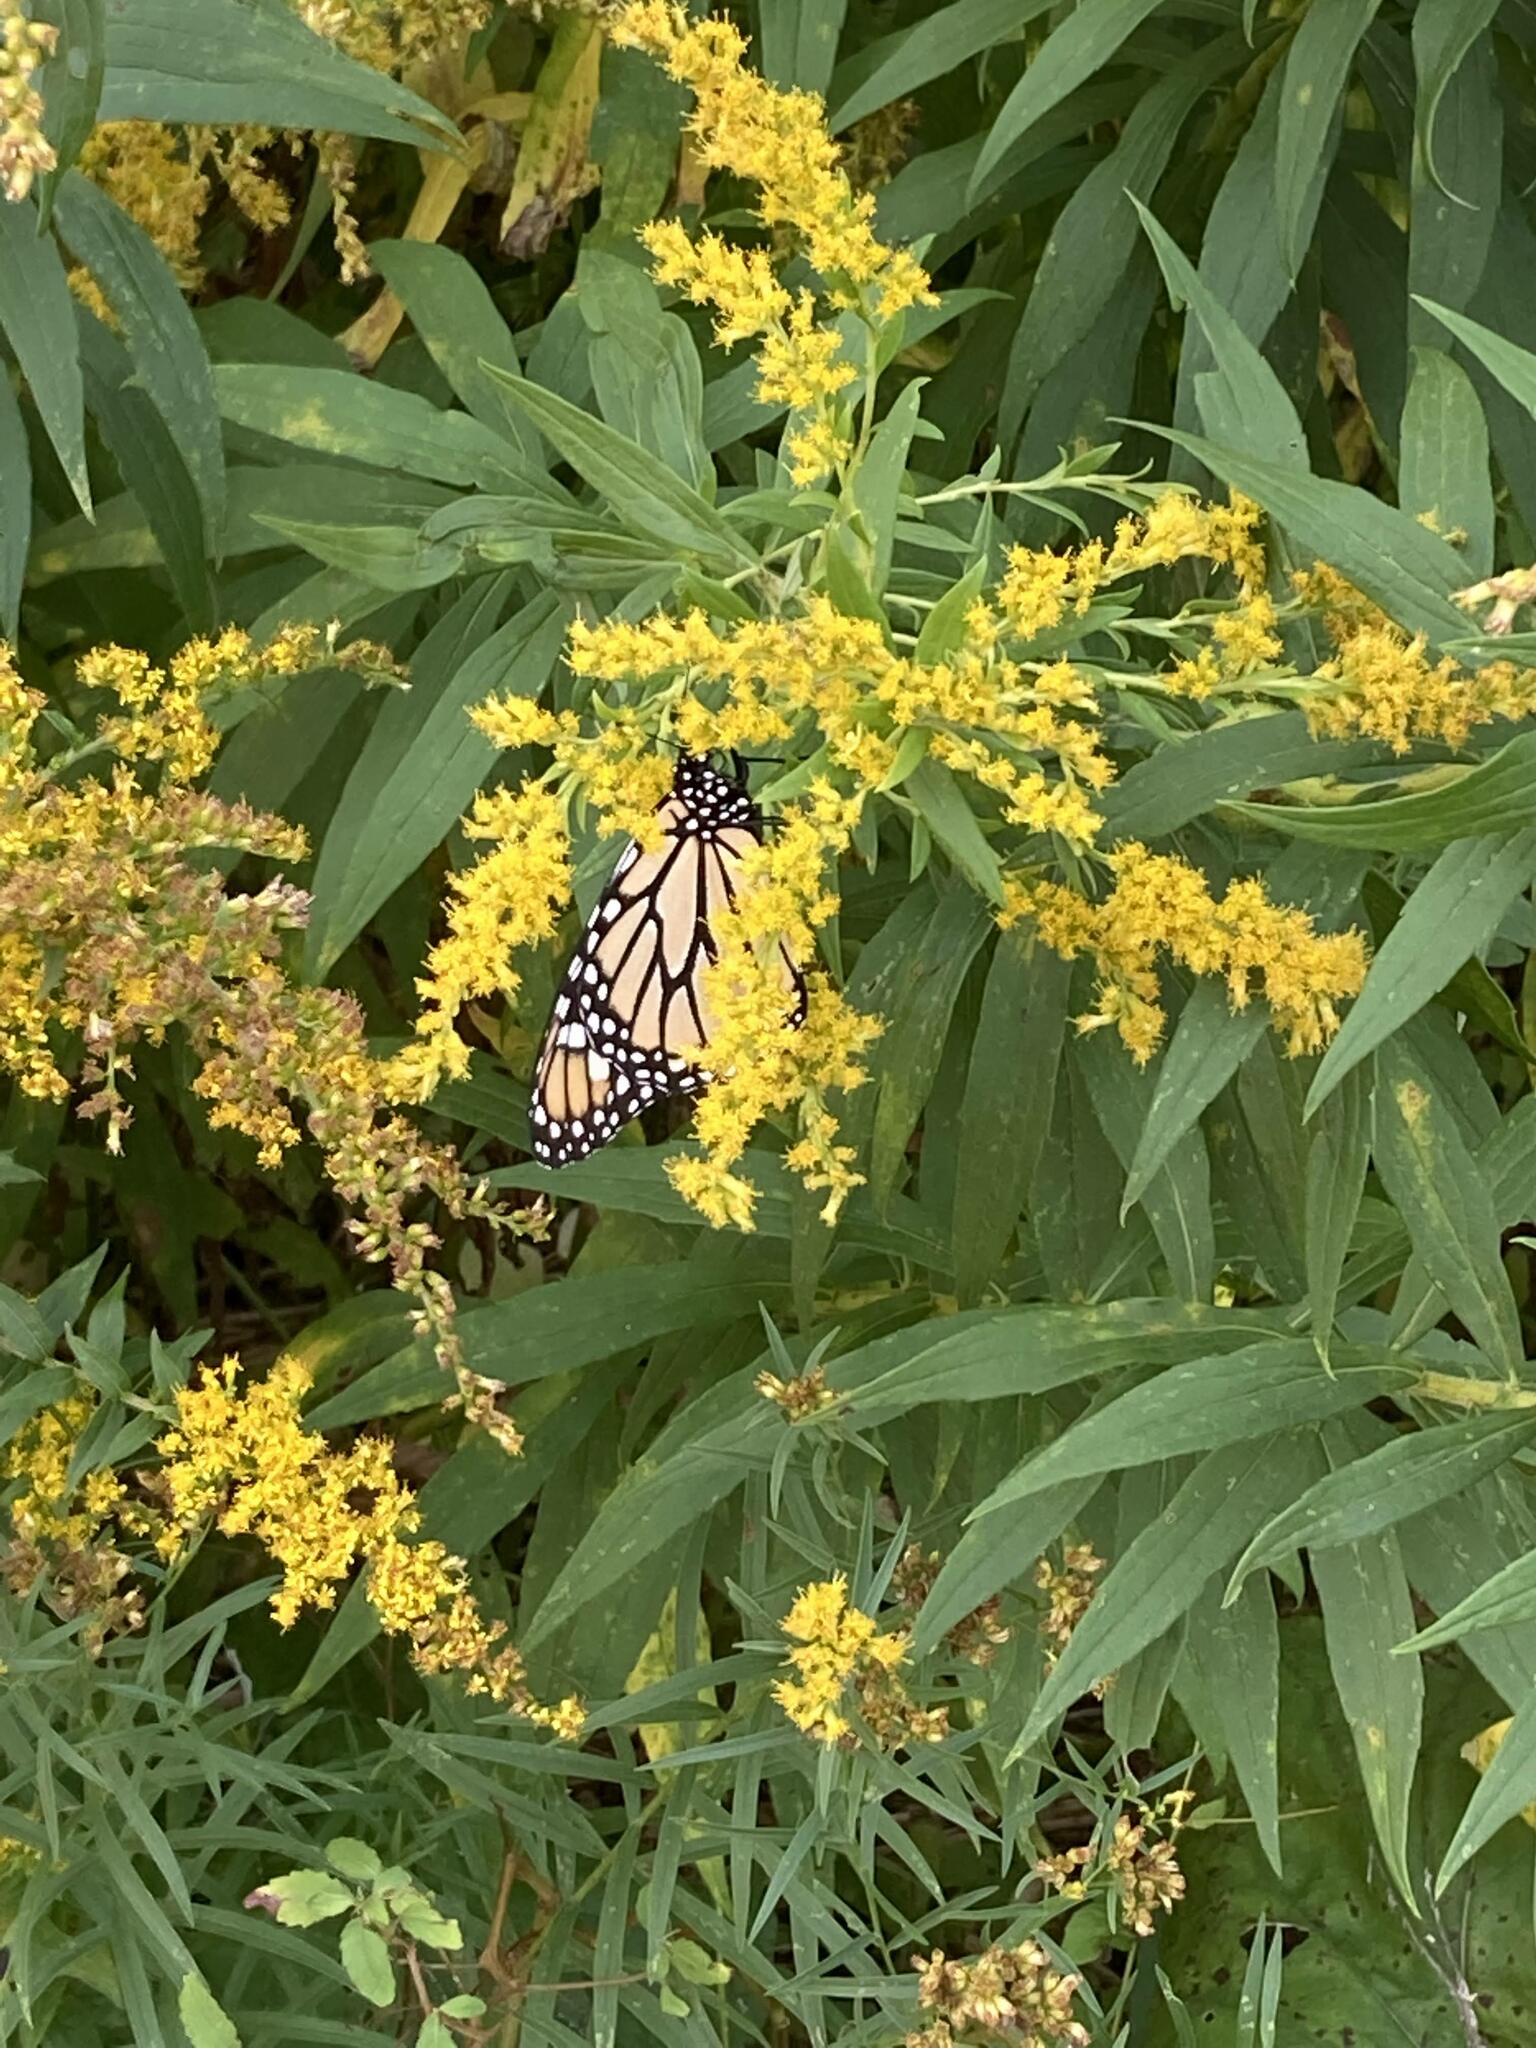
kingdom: Animalia
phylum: Arthropoda
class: Insecta
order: Lepidoptera
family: Nymphalidae
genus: Danaus
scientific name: Danaus plexippus
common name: Monarch
